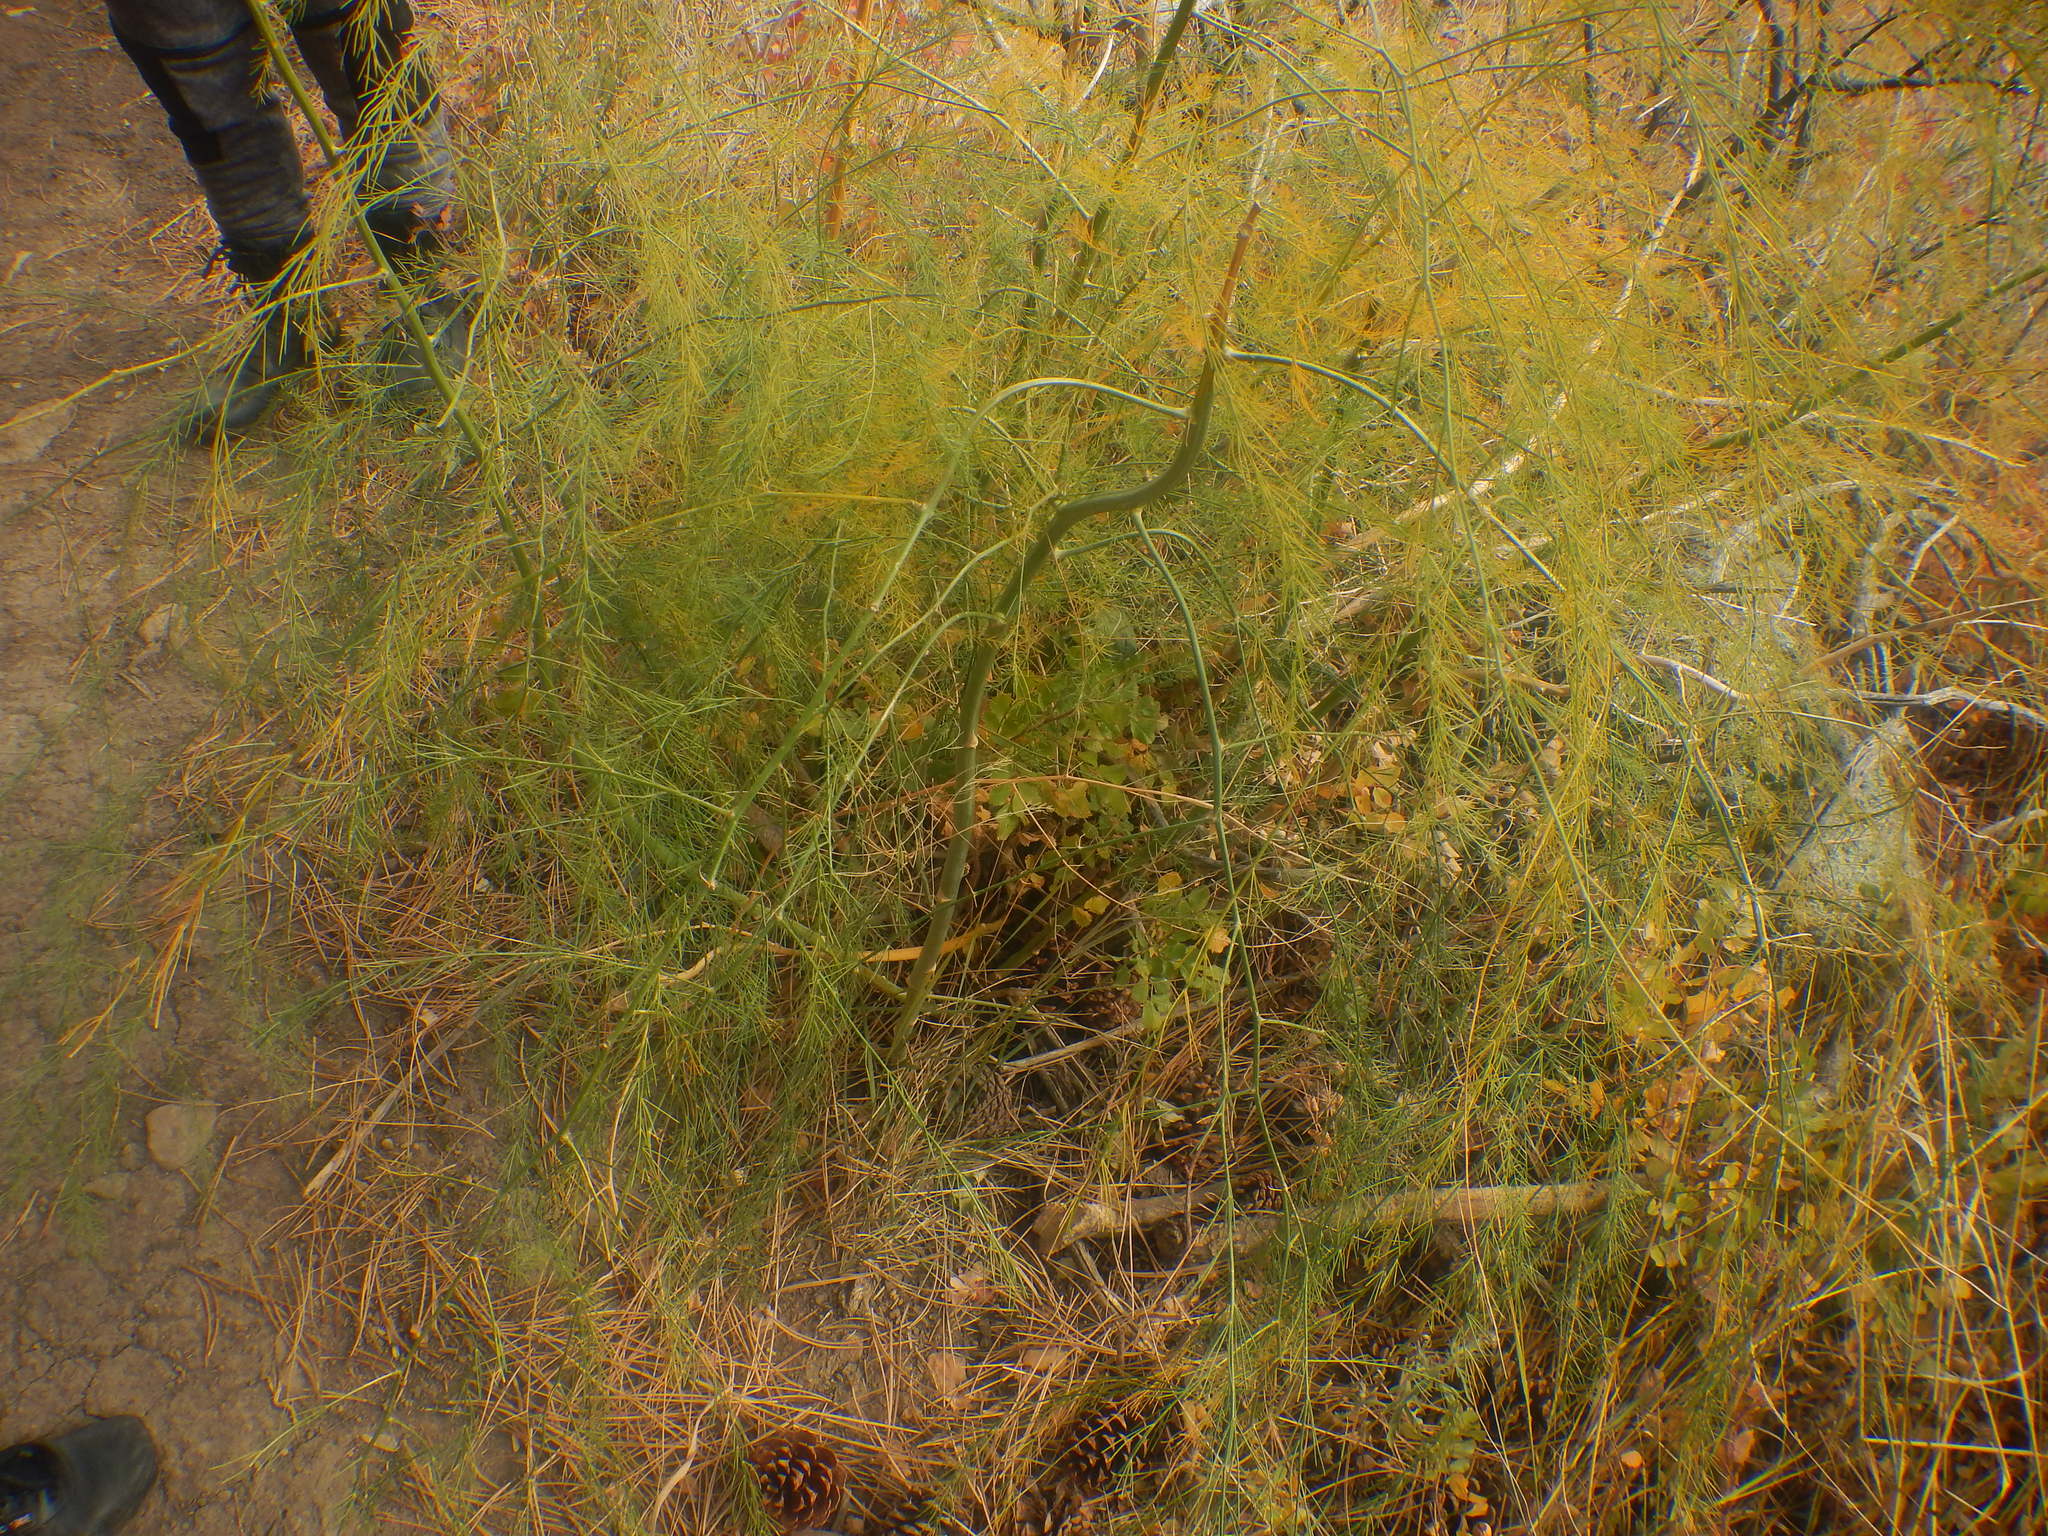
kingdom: Plantae
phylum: Tracheophyta
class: Liliopsida
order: Asparagales
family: Asparagaceae
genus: Asparagus
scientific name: Asparagus officinalis
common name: Garden asparagus
